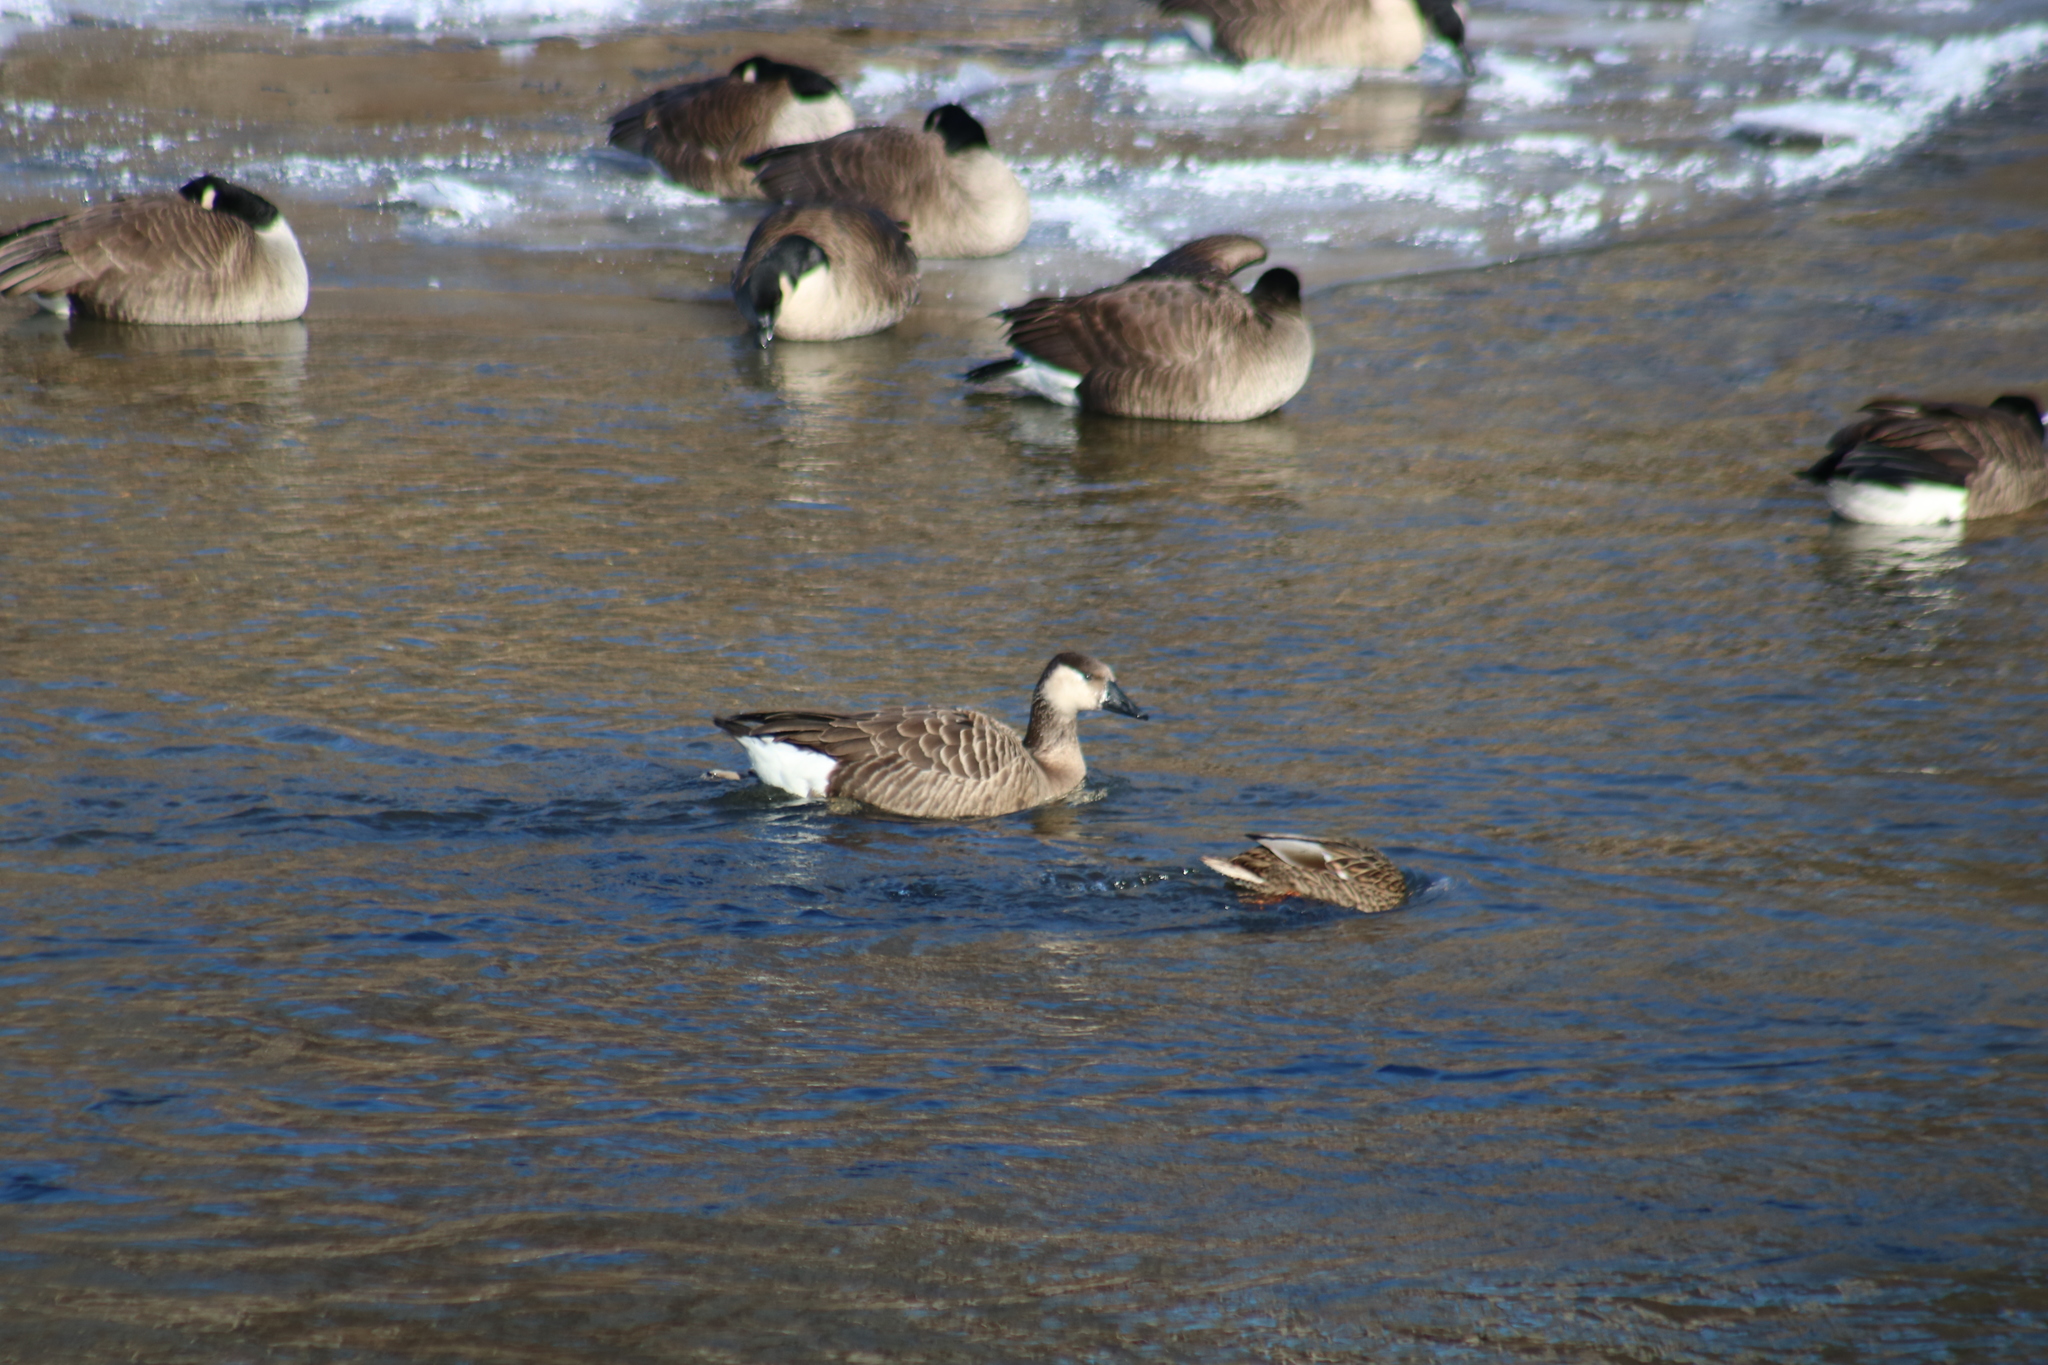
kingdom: Animalia
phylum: Chordata
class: Aves
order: Anseriformes
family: Anatidae
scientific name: Anatidae
